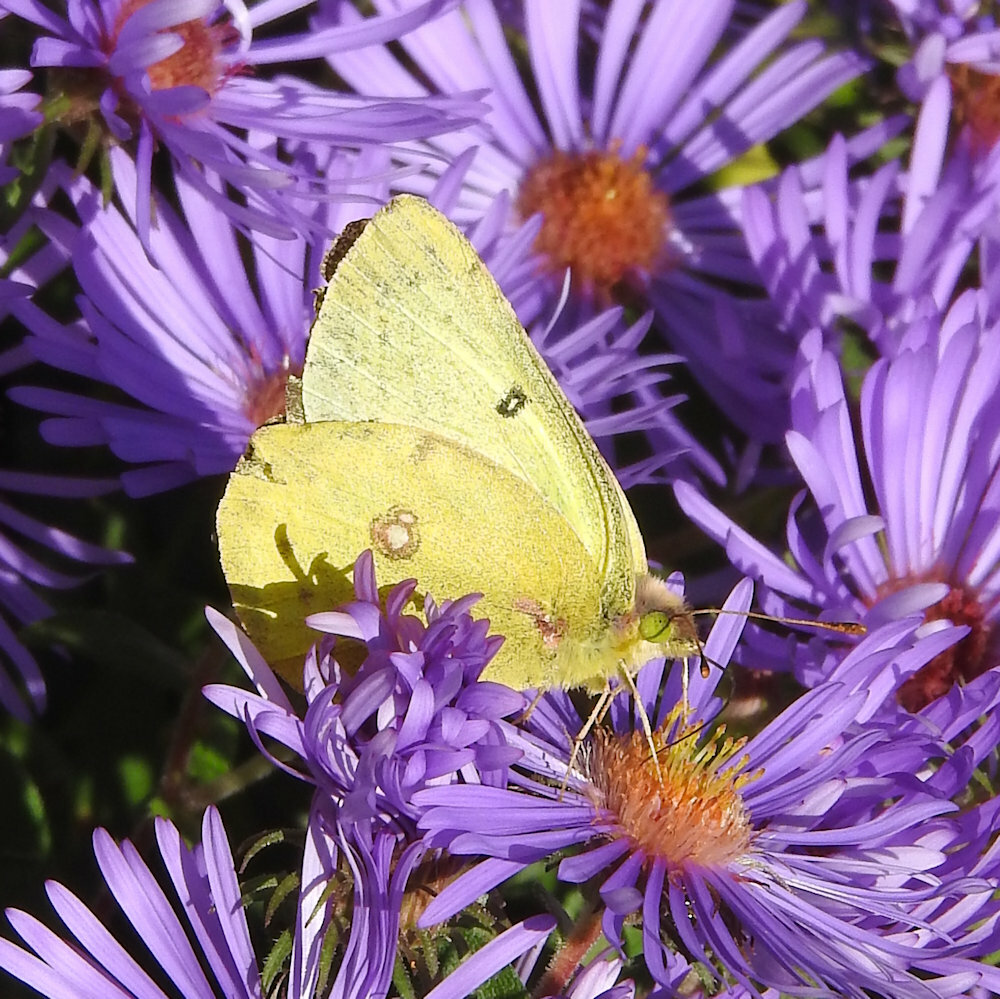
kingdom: Animalia
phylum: Arthropoda
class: Insecta
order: Lepidoptera
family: Pieridae
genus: Colias
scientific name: Colias philodice
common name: Clouded sulphur
